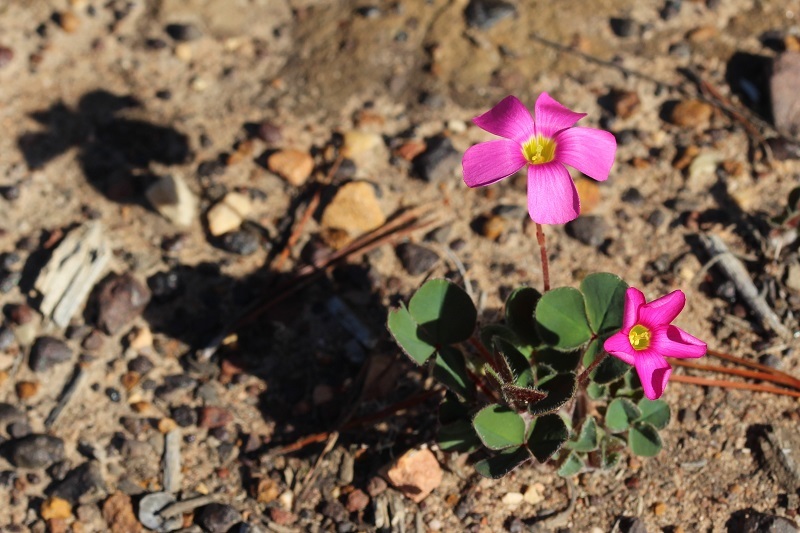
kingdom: Plantae
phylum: Tracheophyta
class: Magnoliopsida
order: Oxalidales
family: Oxalidaceae
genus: Oxalis
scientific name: Oxalis imbricata
